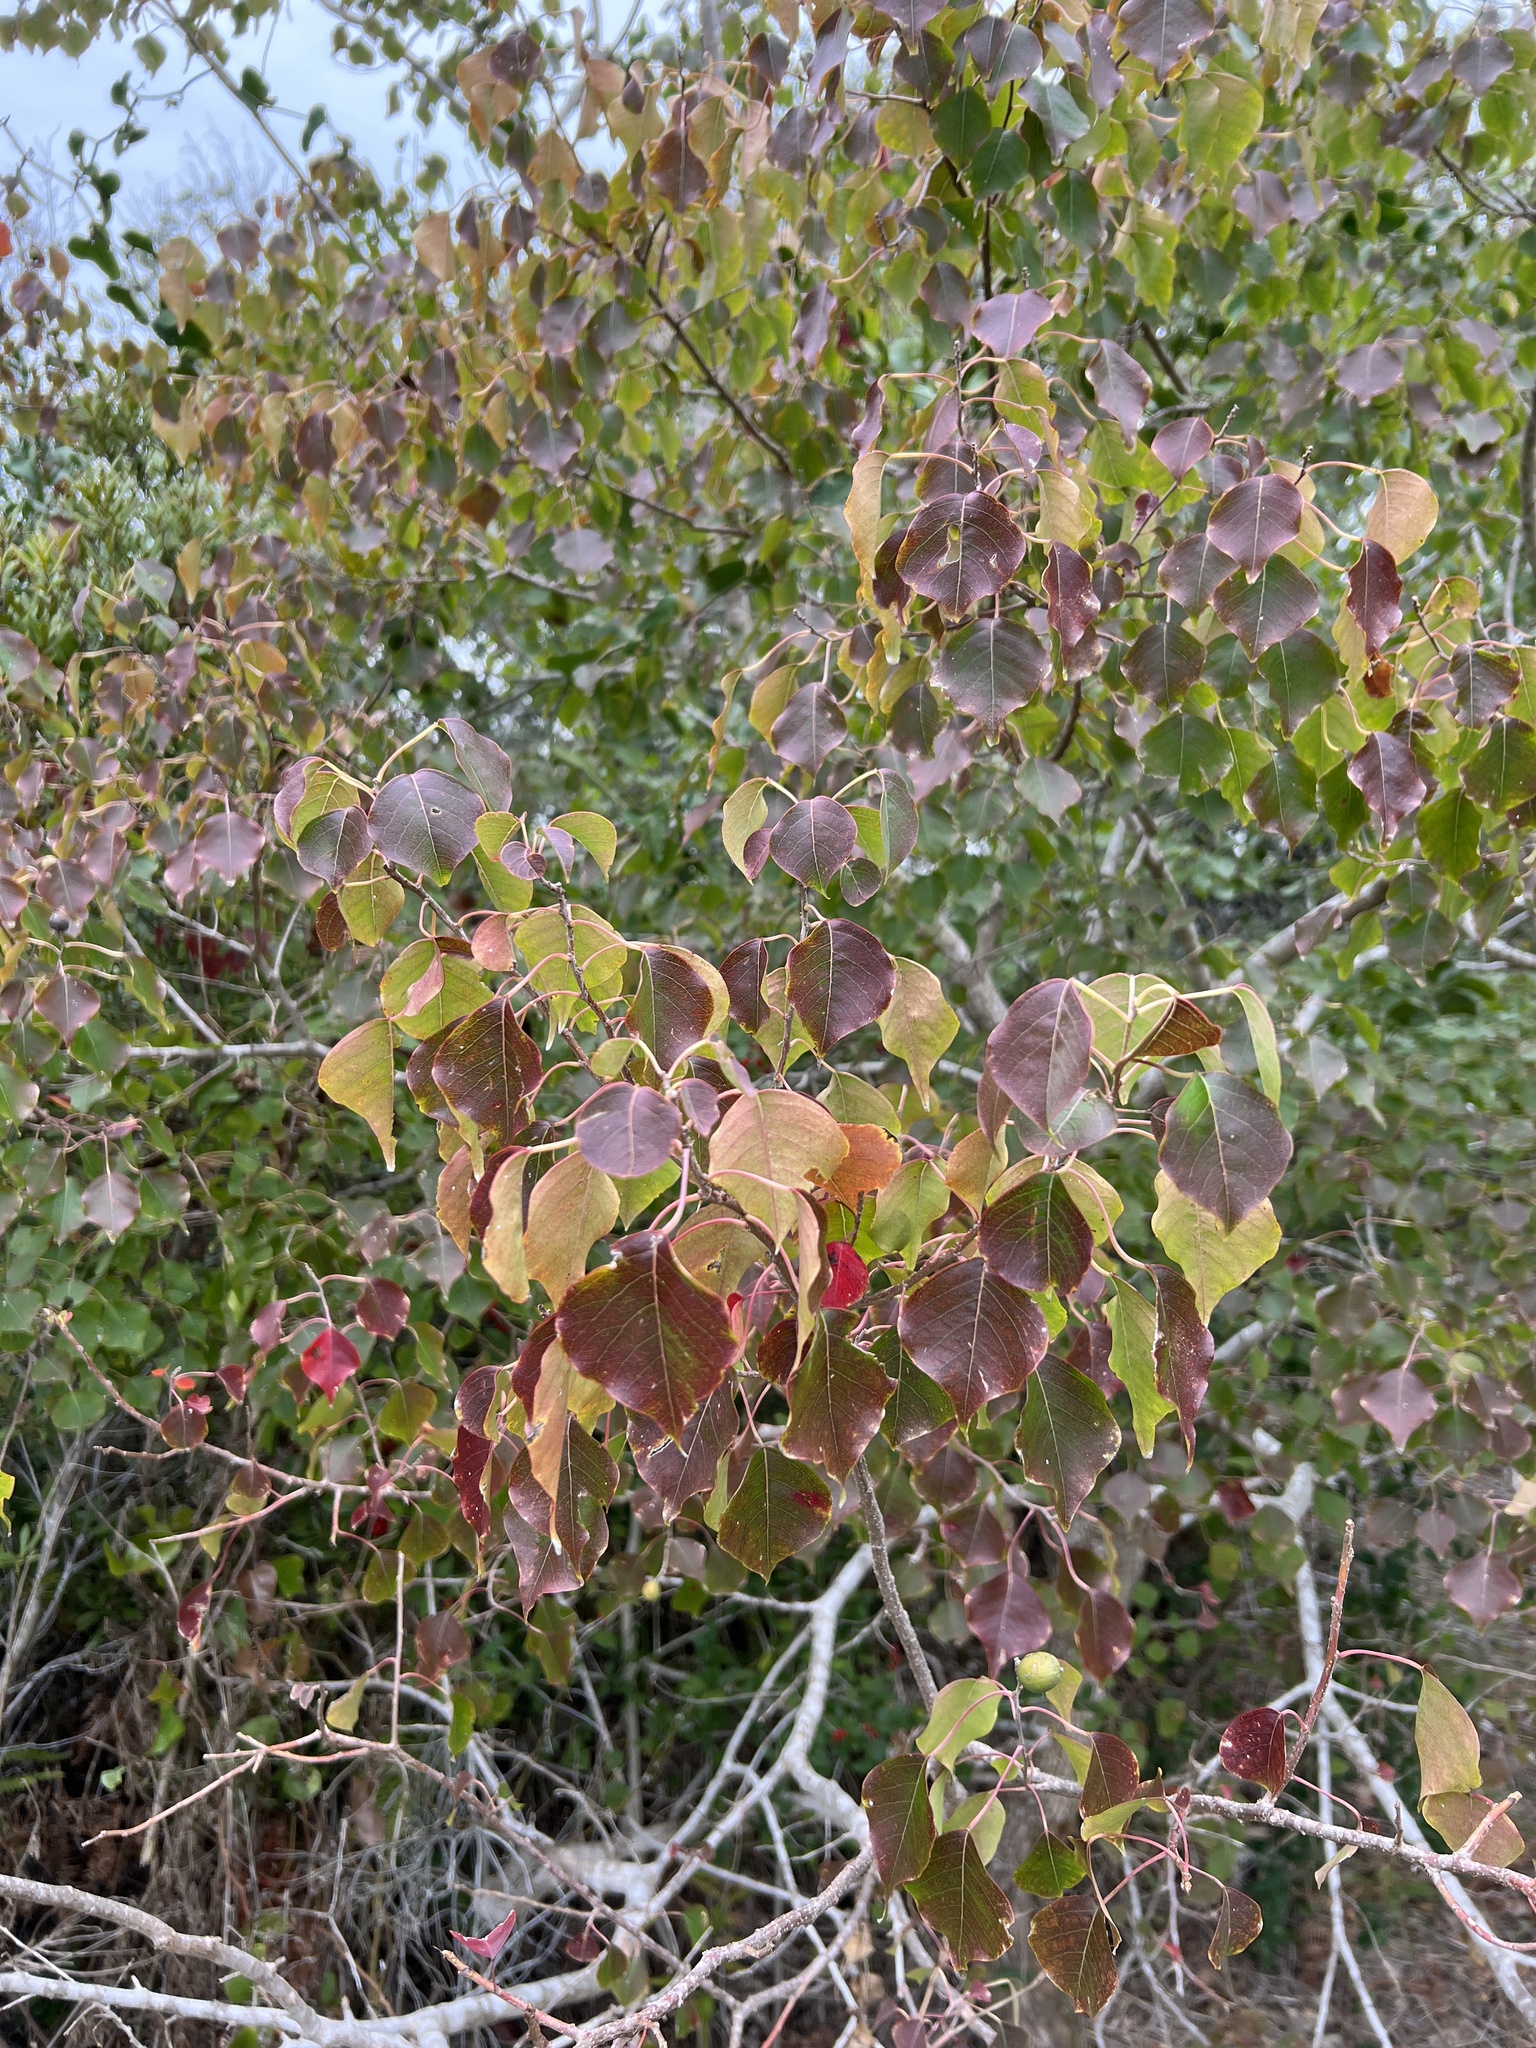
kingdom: Plantae
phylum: Tracheophyta
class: Magnoliopsida
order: Malpighiales
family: Euphorbiaceae
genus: Triadica
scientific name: Triadica sebifera
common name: Chinese tallow
